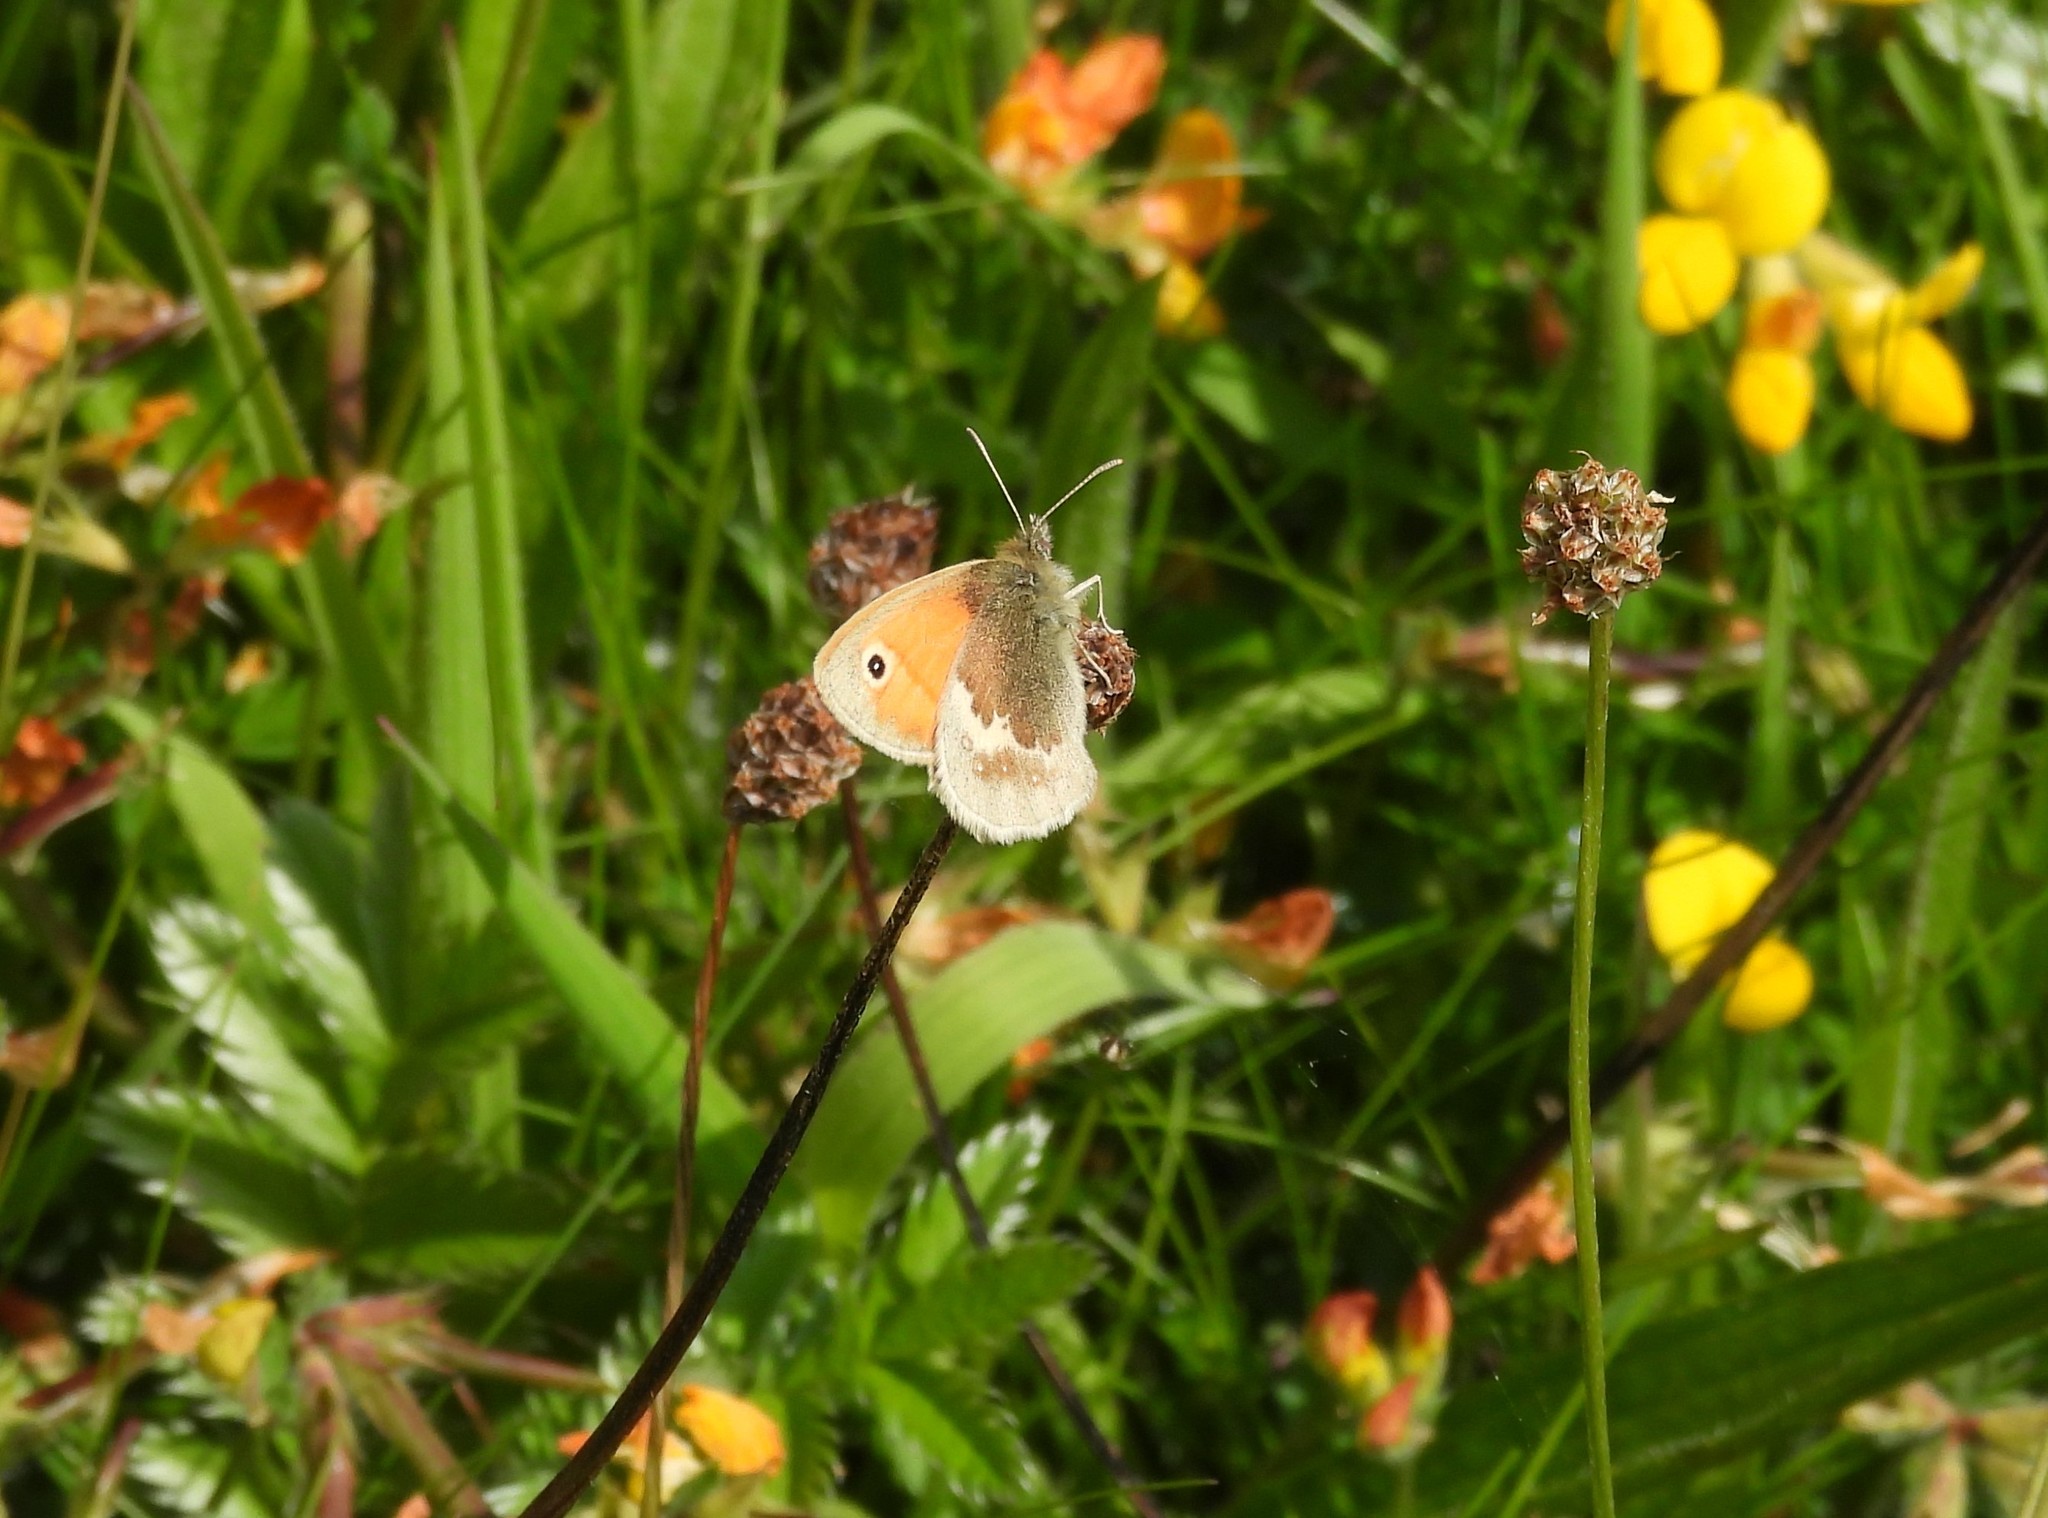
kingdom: Animalia
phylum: Arthropoda
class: Insecta
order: Lepidoptera
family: Nymphalidae
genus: Coenonympha
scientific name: Coenonympha pamphilus
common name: Small heath
